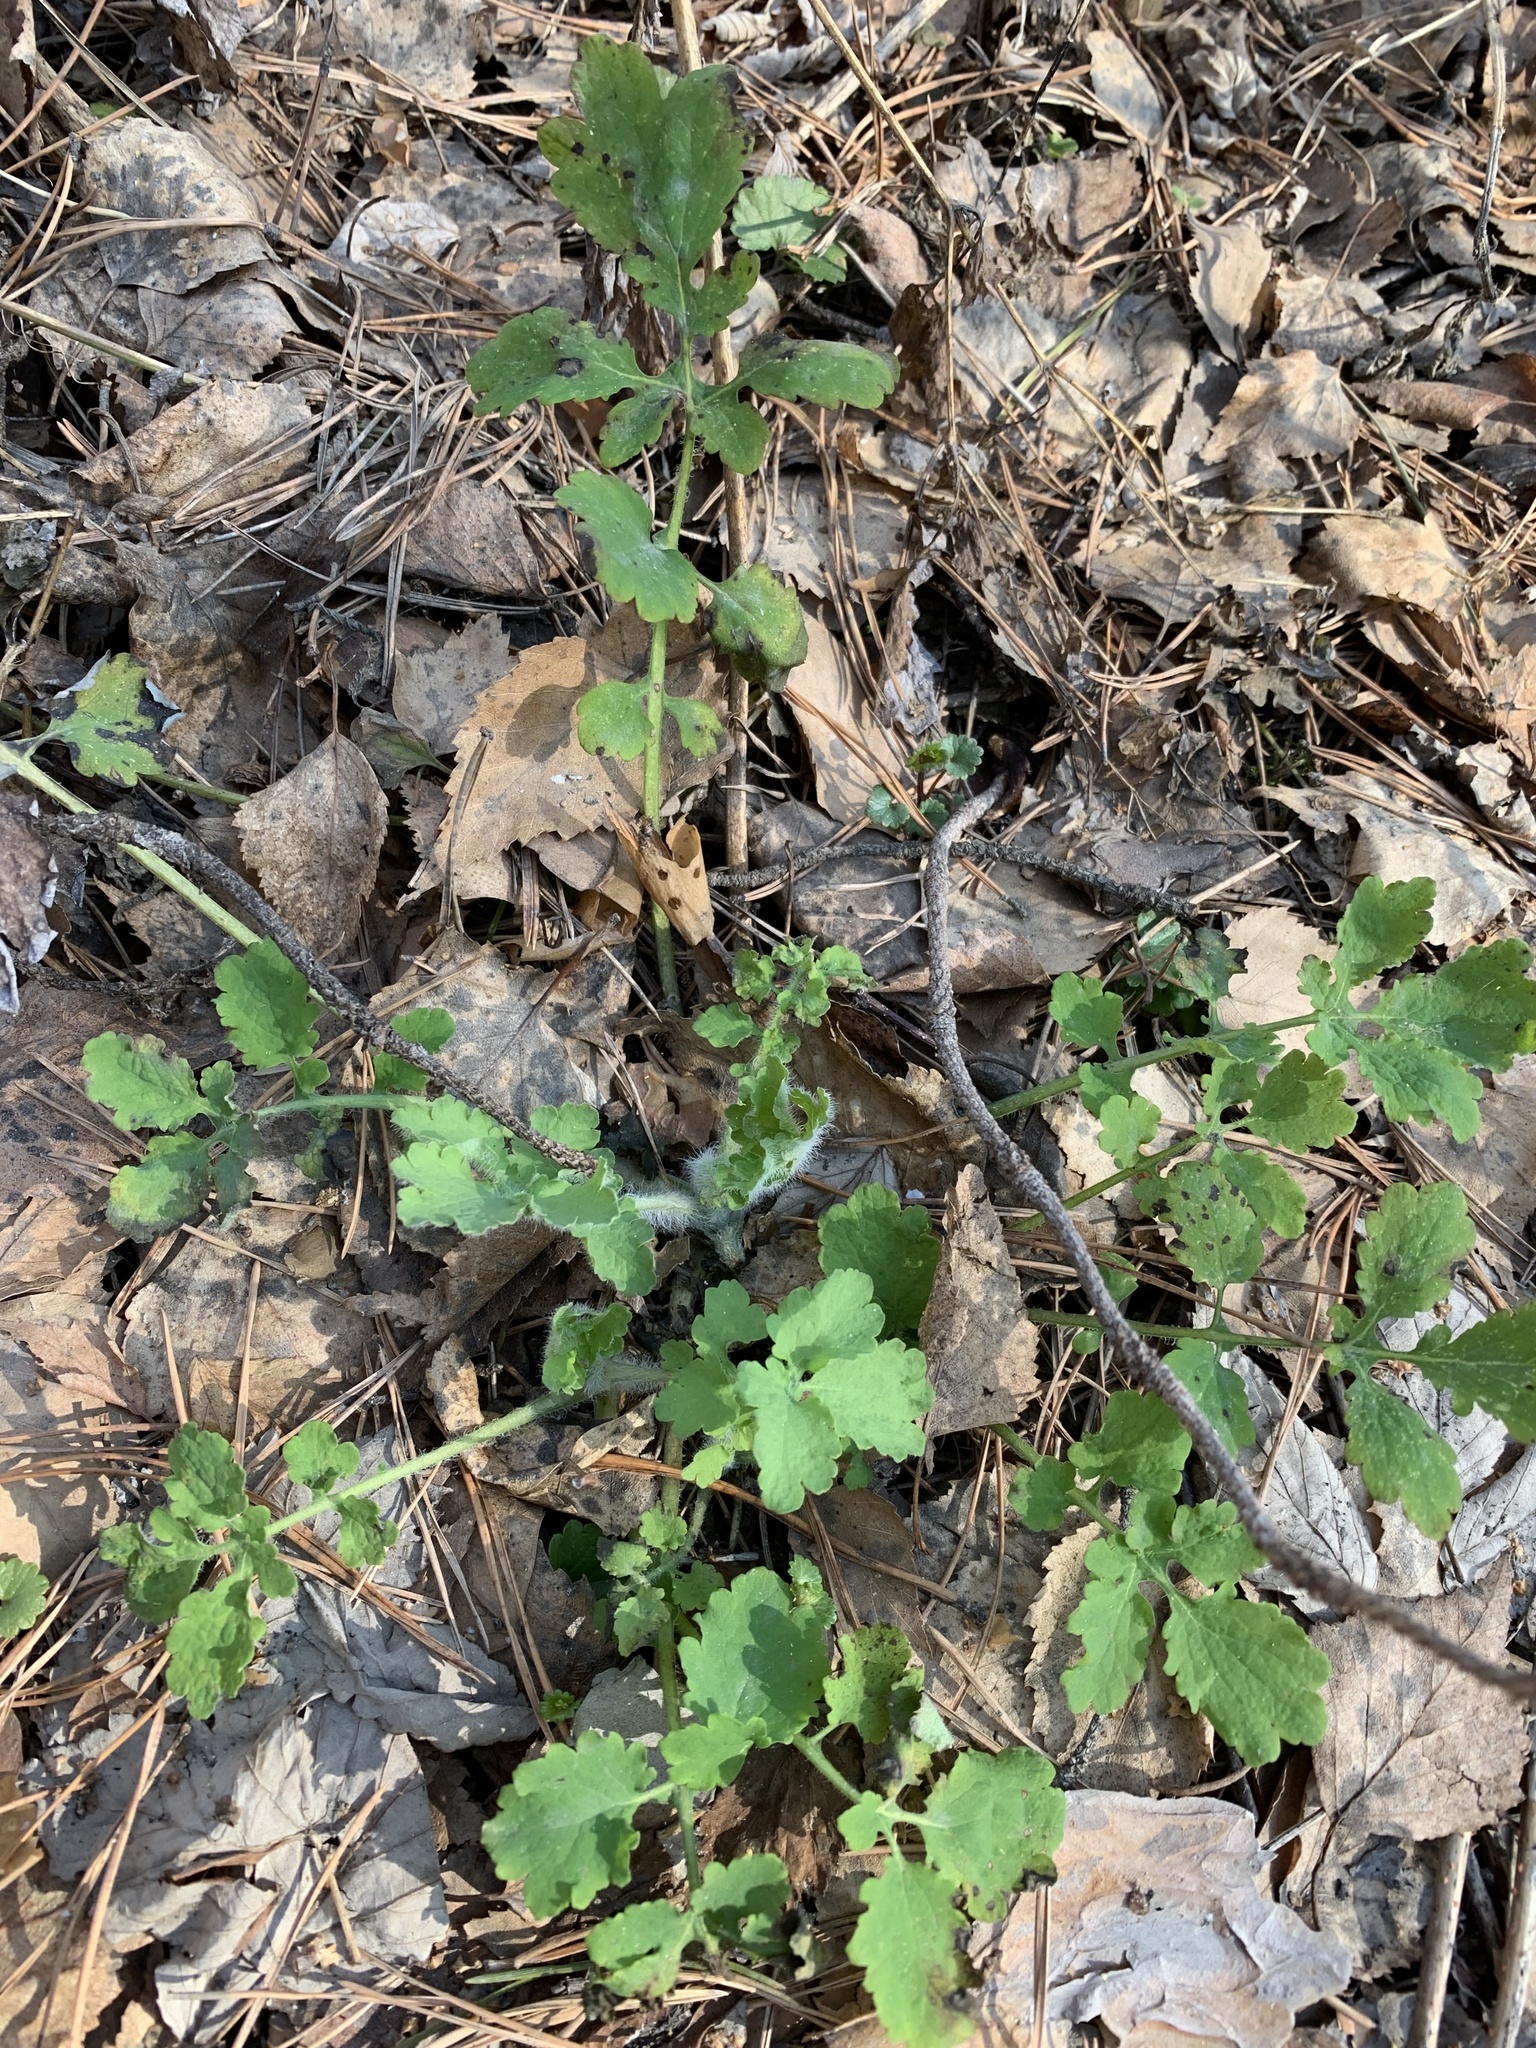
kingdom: Plantae
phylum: Tracheophyta
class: Magnoliopsida
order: Ranunculales
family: Papaveraceae
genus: Chelidonium
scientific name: Chelidonium majus
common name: Greater celandine
